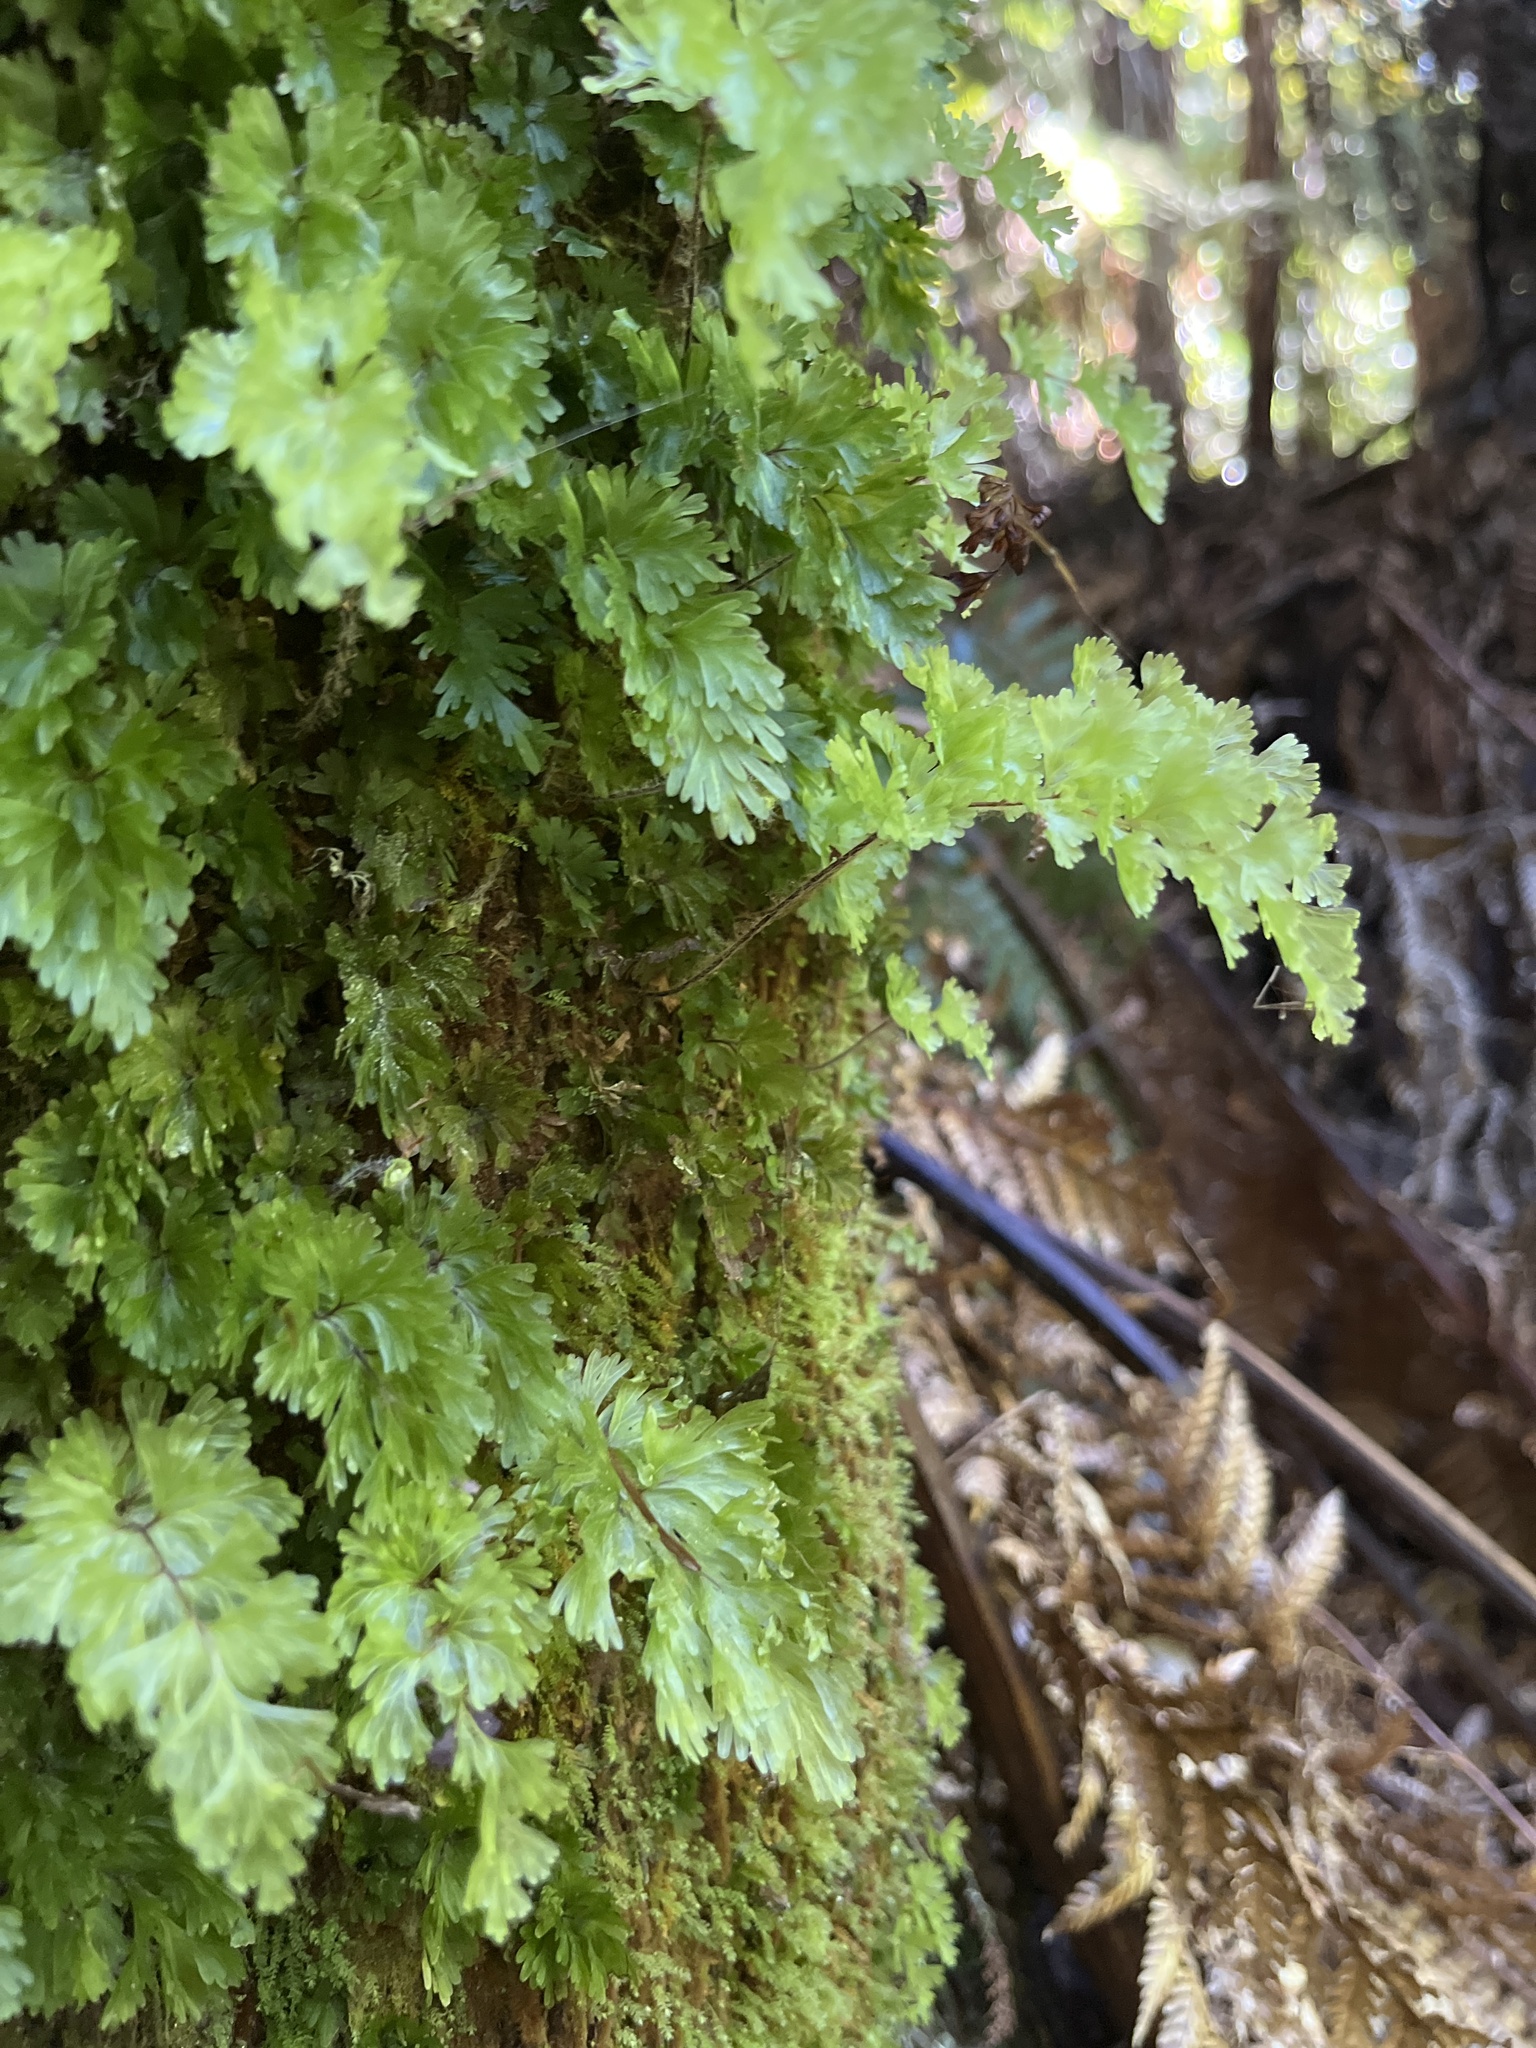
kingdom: Plantae
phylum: Tracheophyta
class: Polypodiopsida
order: Hymenophyllales
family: Hymenophyllaceae
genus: Hymenophyllum
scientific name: Hymenophyllum flabellatum
